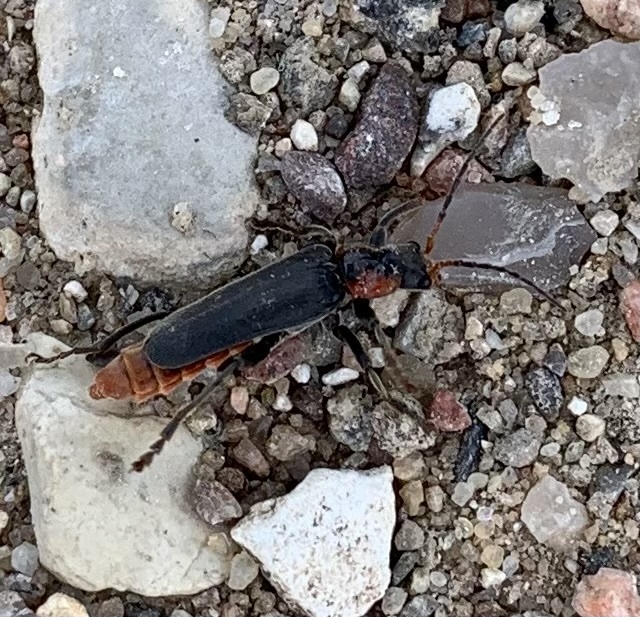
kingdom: Animalia
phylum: Arthropoda
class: Insecta
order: Coleoptera
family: Cantharidae
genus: Cantharis
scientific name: Cantharis fusca
